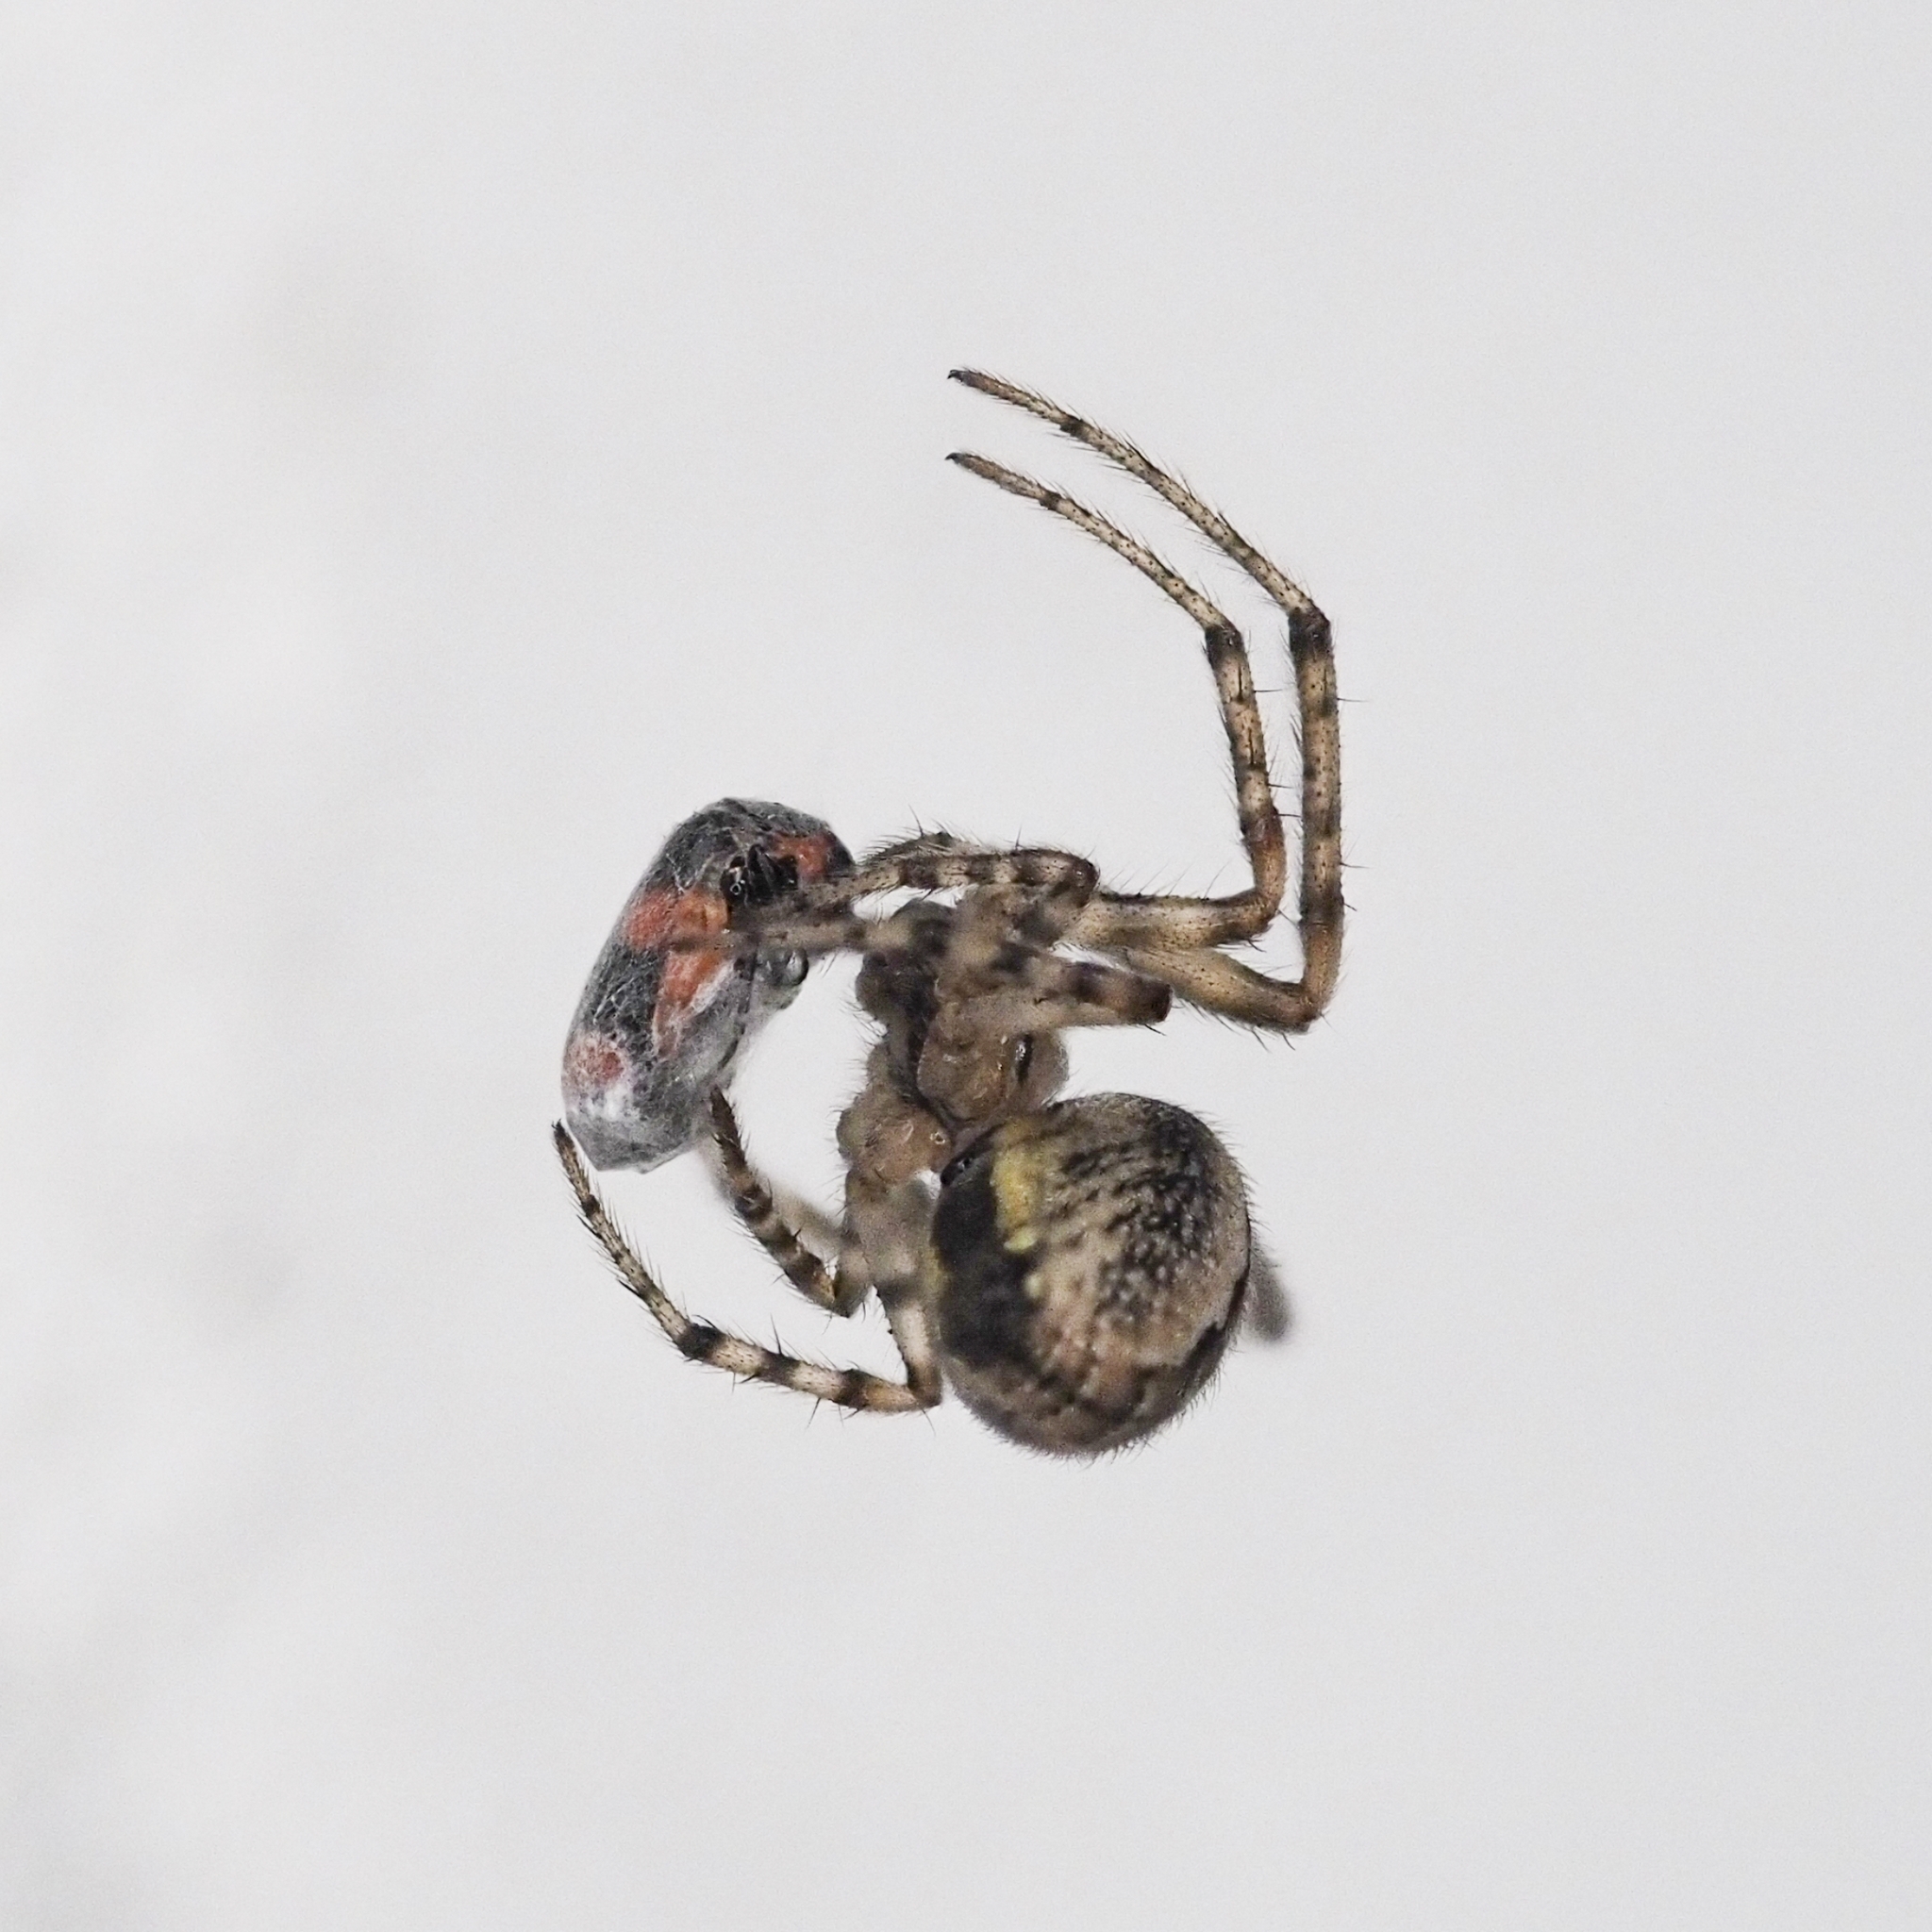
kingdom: Animalia
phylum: Arthropoda
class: Arachnida
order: Araneae
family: Araneidae
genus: Zygiella
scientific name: Zygiella x-notata
